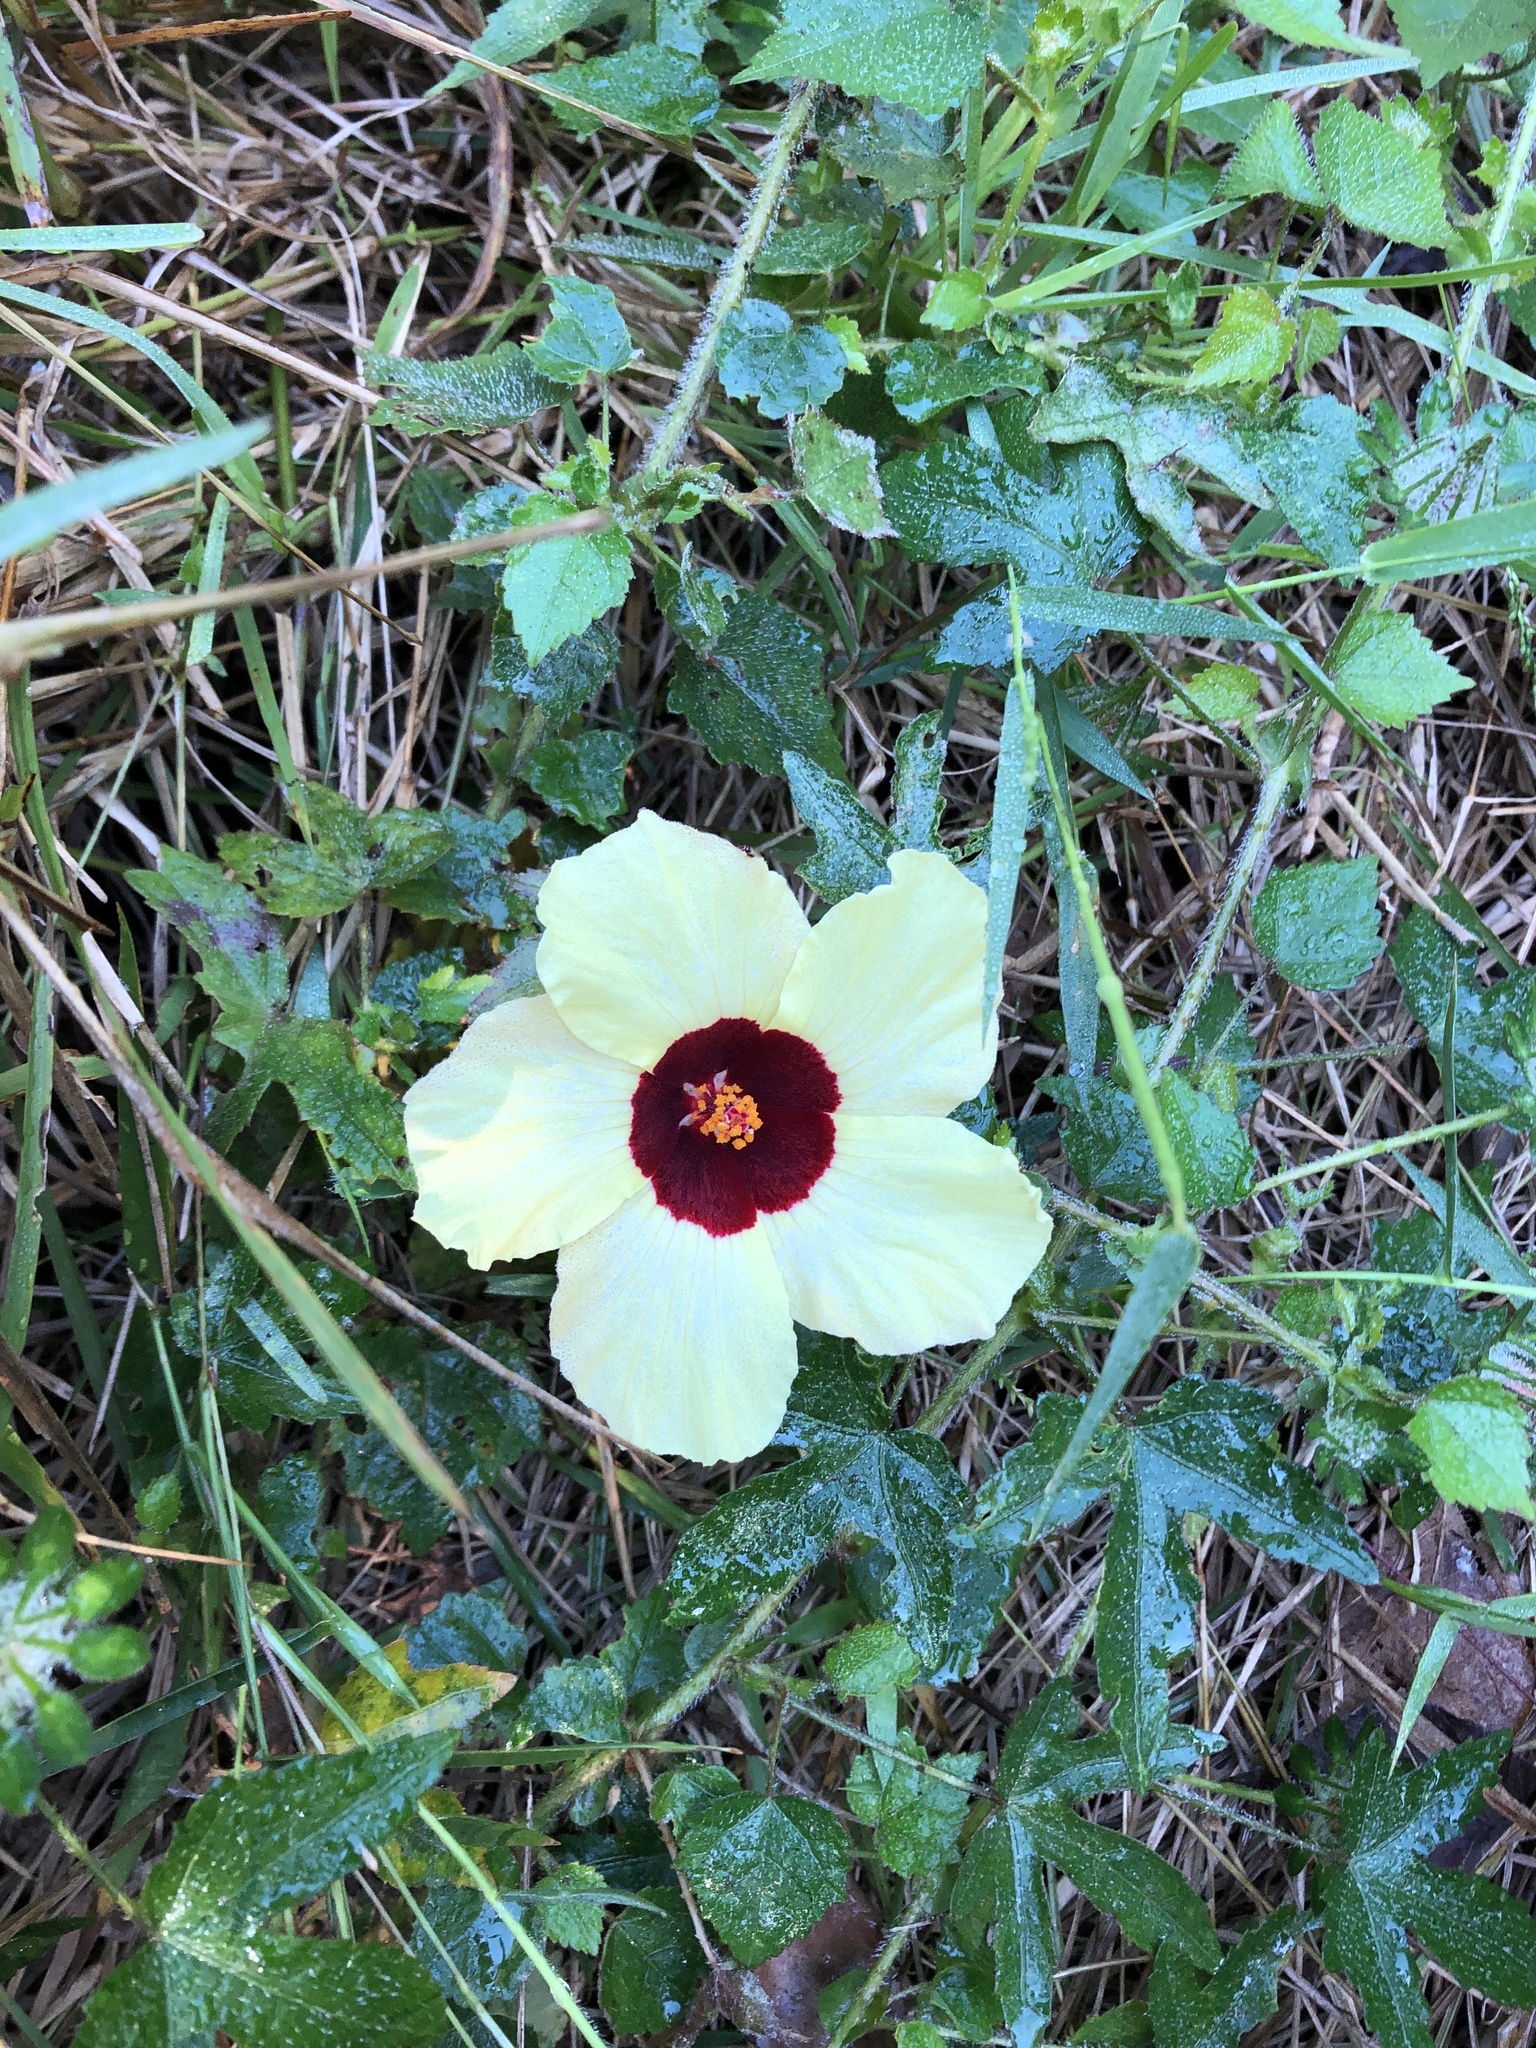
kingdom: Plantae
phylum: Tracheophyta
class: Magnoliopsida
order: Malvales
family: Malvaceae
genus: Hibiscus
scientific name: Hibiscus trionum
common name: Bladder ketmia
